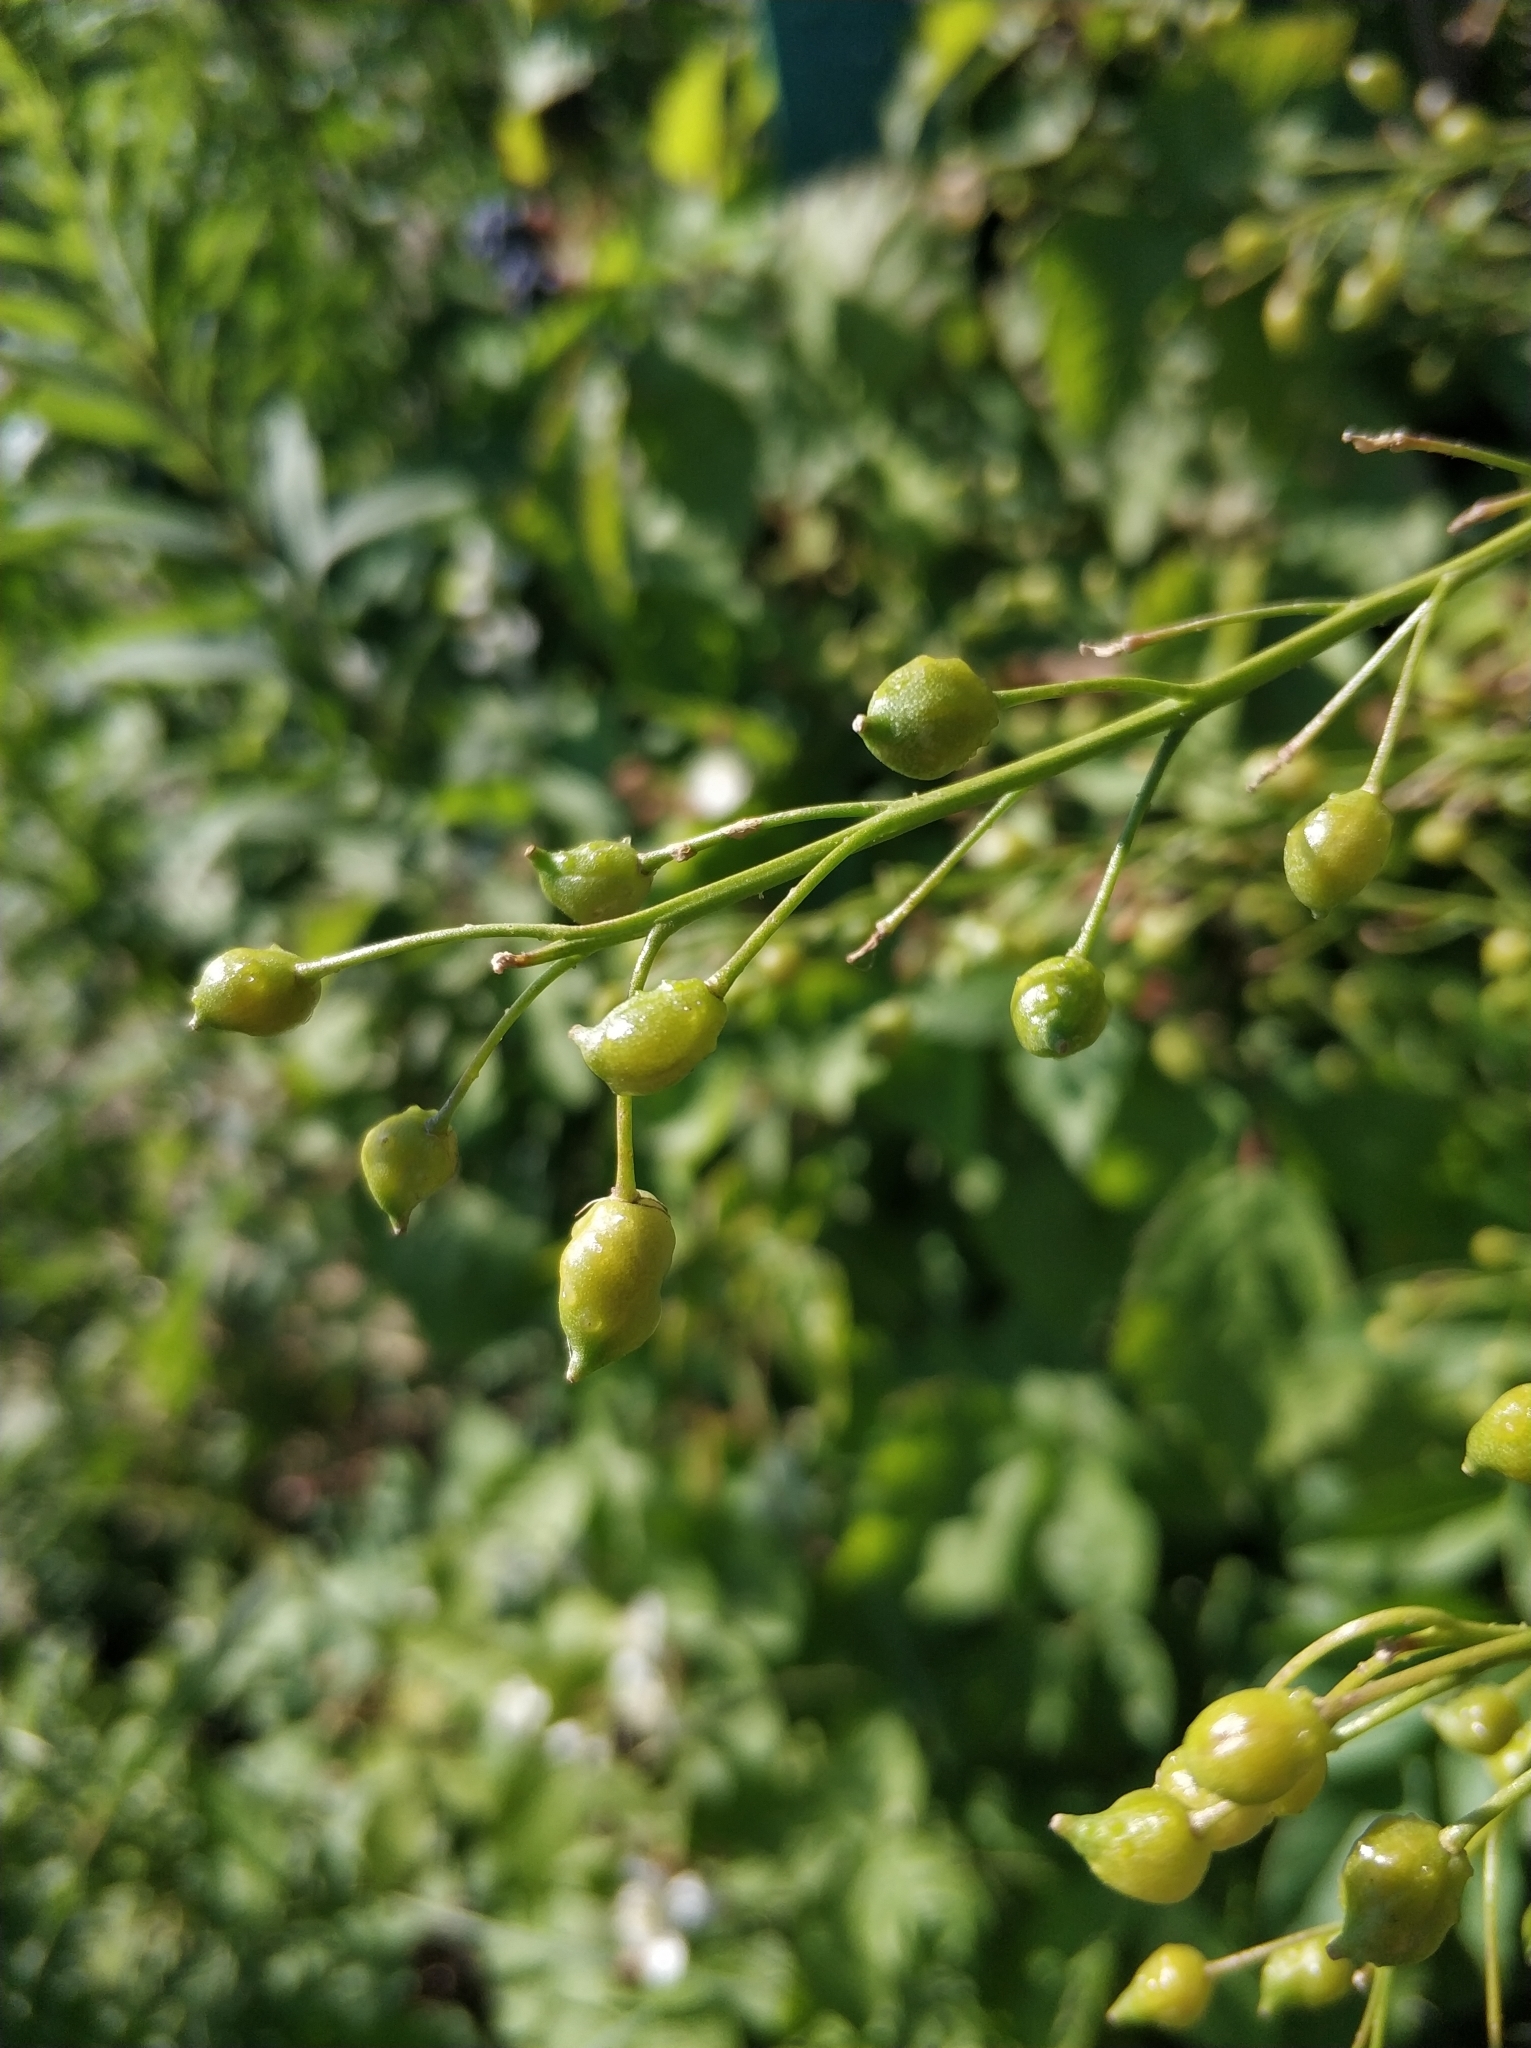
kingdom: Plantae
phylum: Tracheophyta
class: Magnoliopsida
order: Brassicales
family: Brassicaceae
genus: Bunias
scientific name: Bunias orientalis
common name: Warty-cabbage
